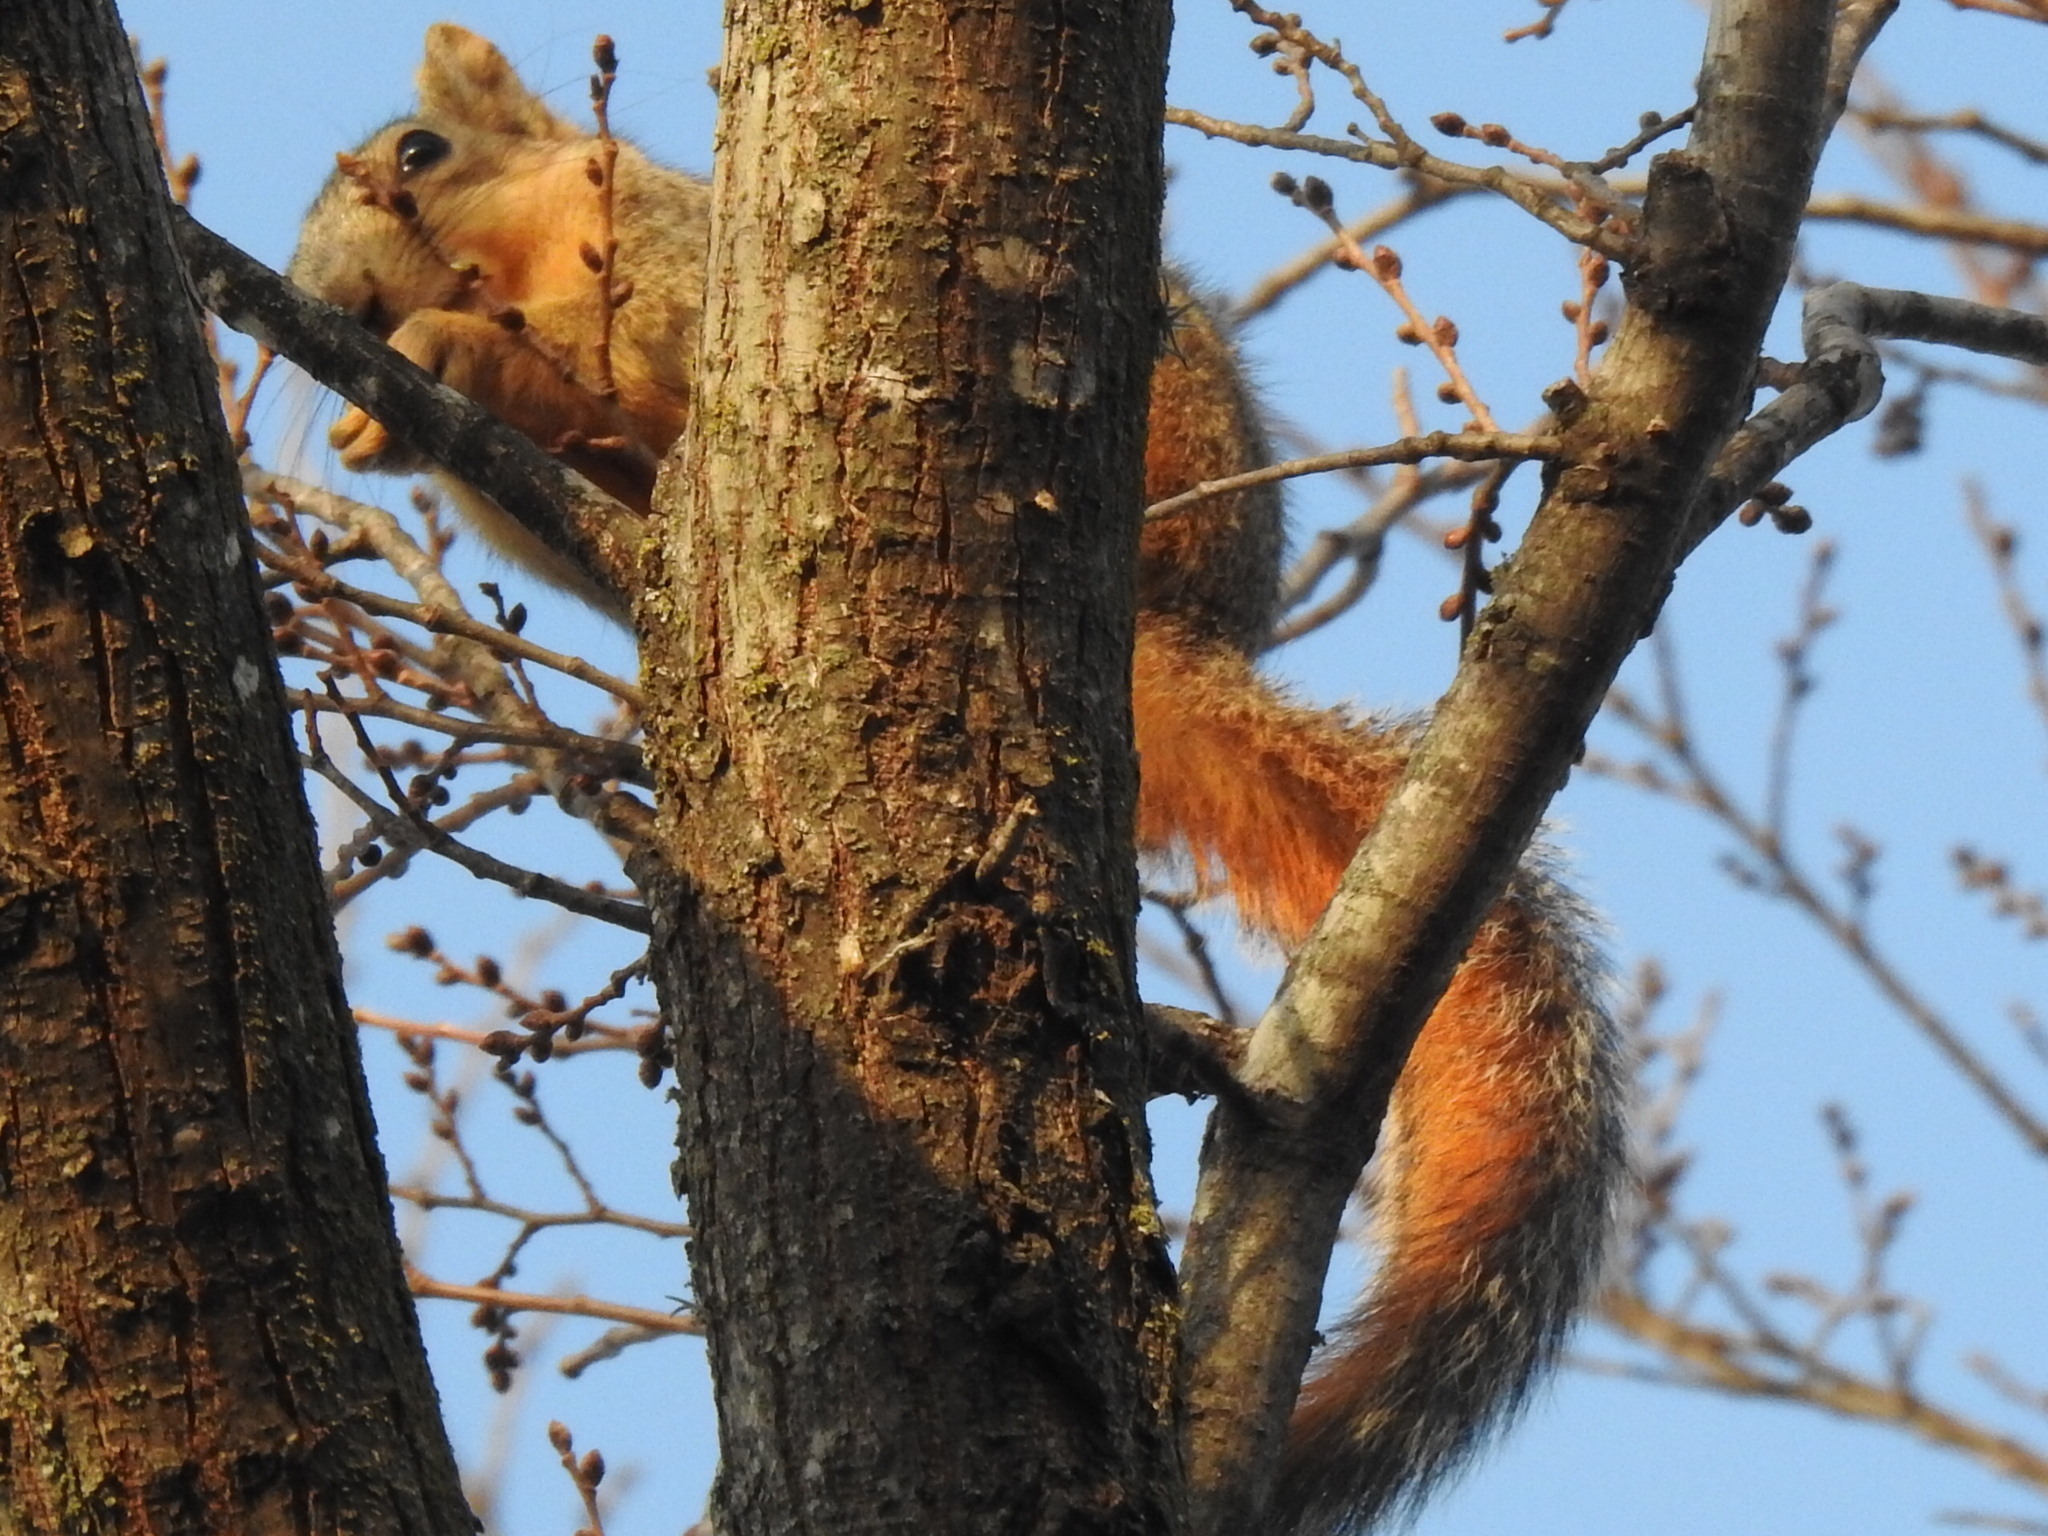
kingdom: Animalia
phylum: Chordata
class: Mammalia
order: Rodentia
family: Sciuridae
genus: Sciurus
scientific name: Sciurus niger
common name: Fox squirrel
